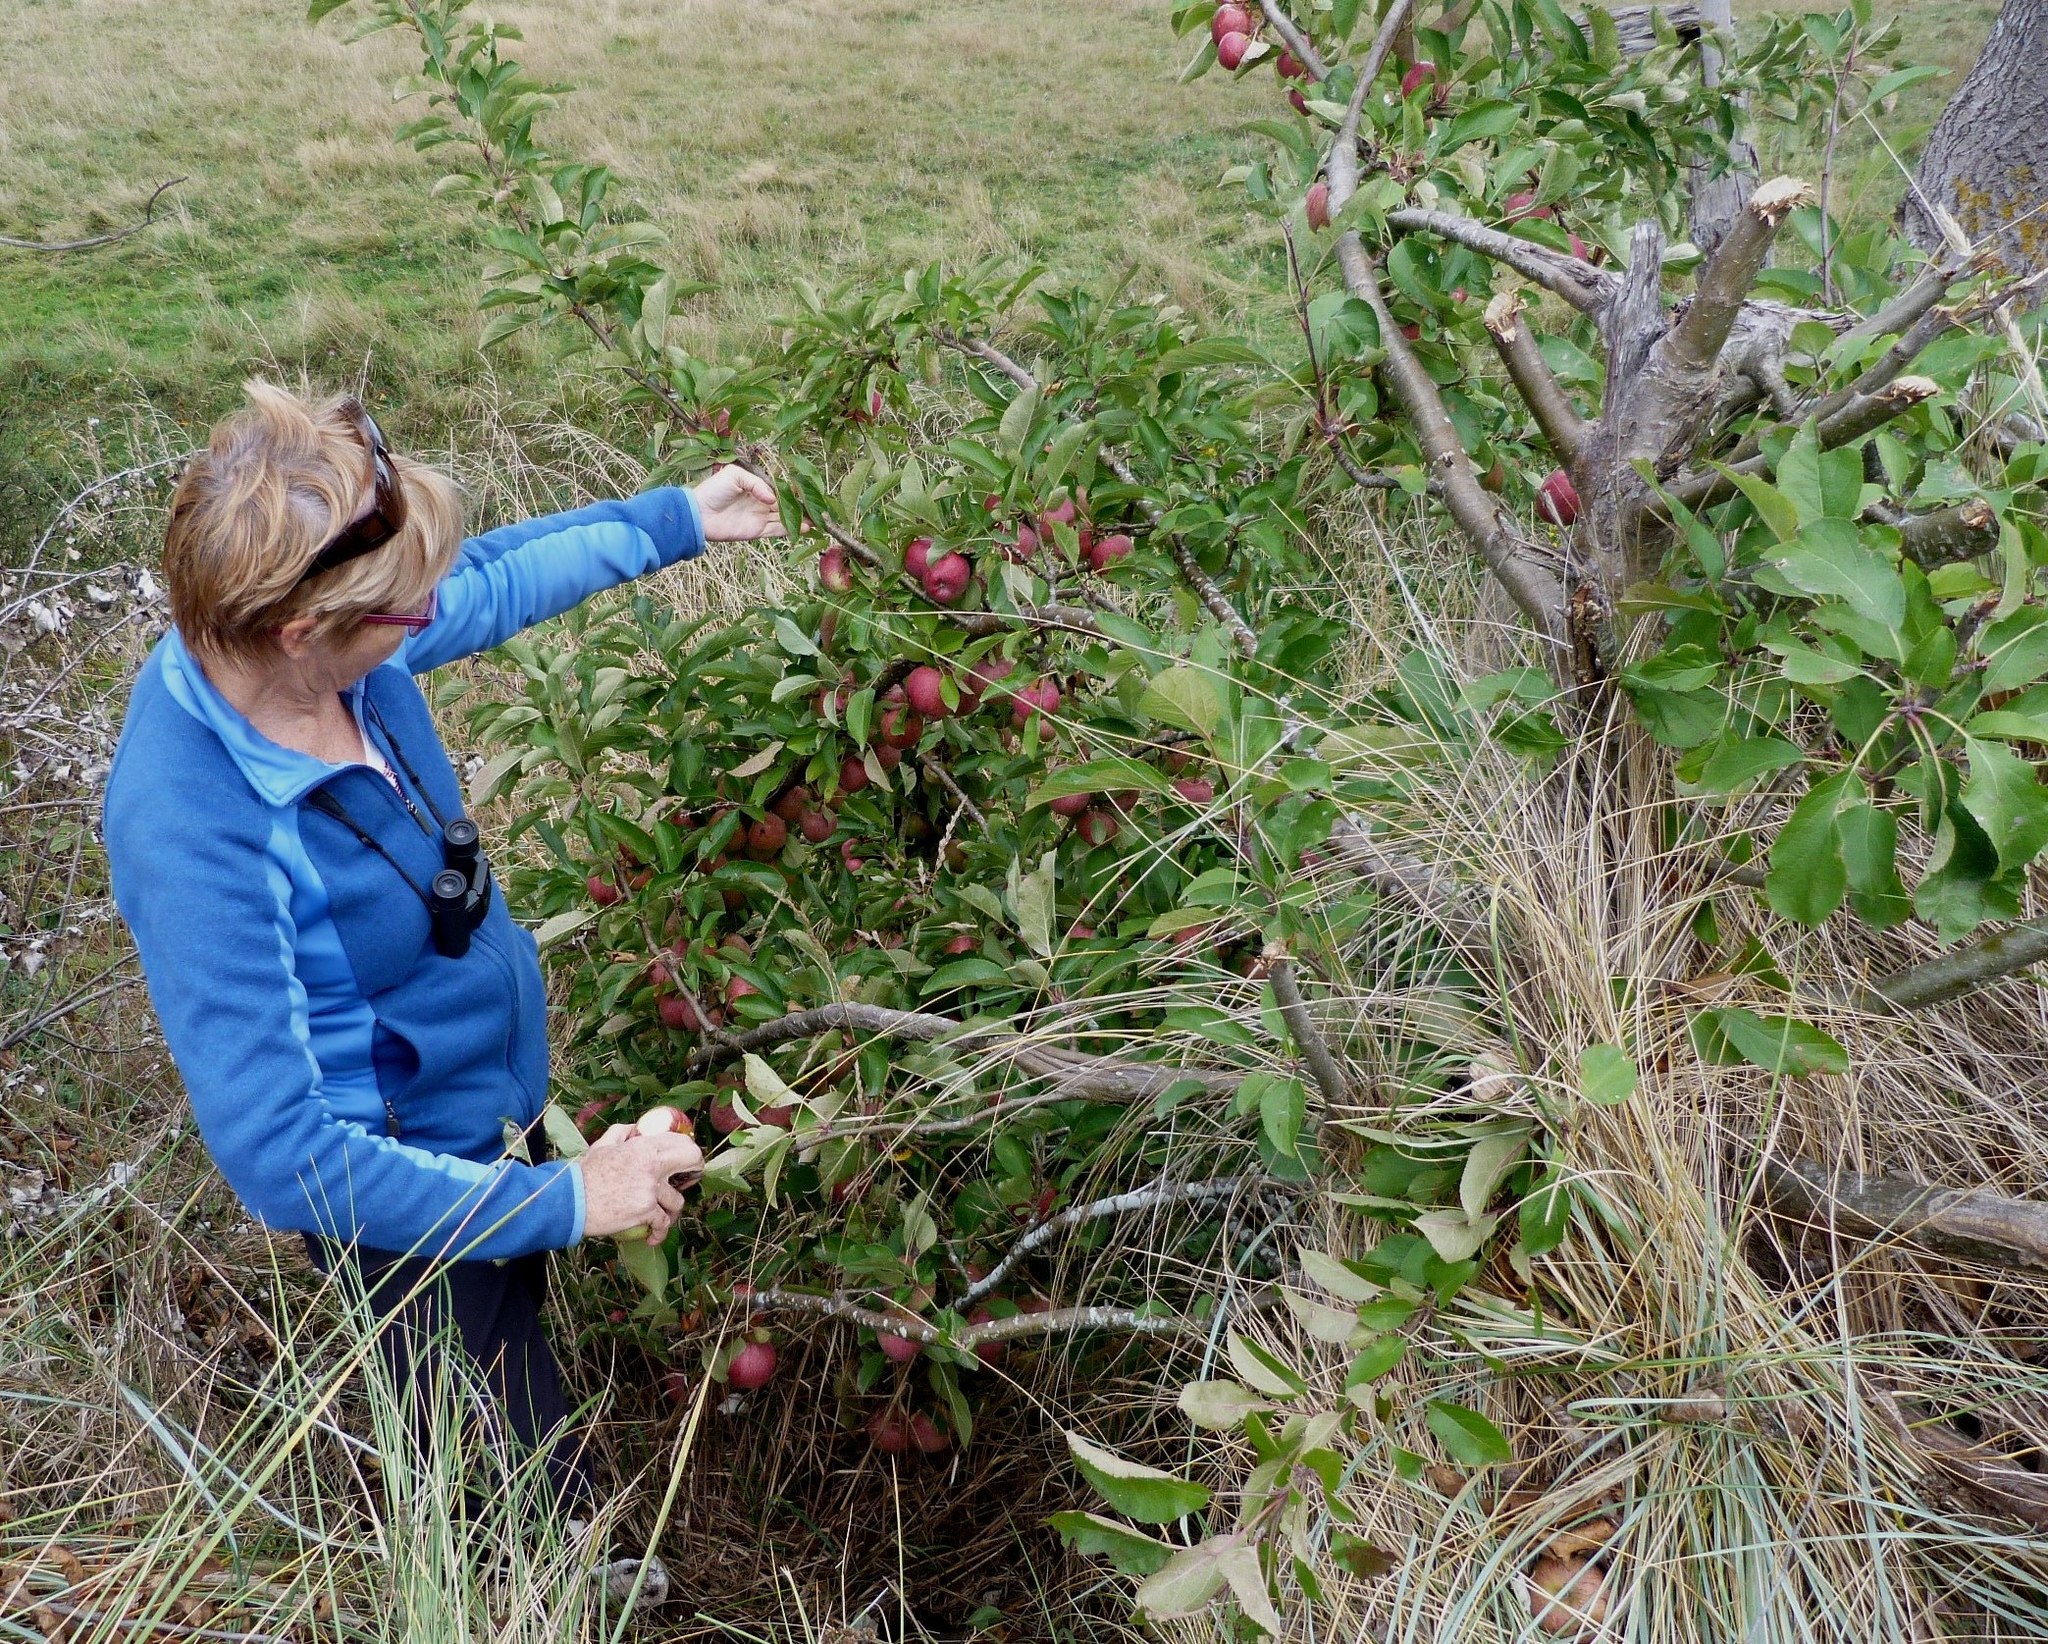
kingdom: Plantae
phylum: Tracheophyta
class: Magnoliopsida
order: Rosales
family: Rosaceae
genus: Malus
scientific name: Malus domestica
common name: Apple
